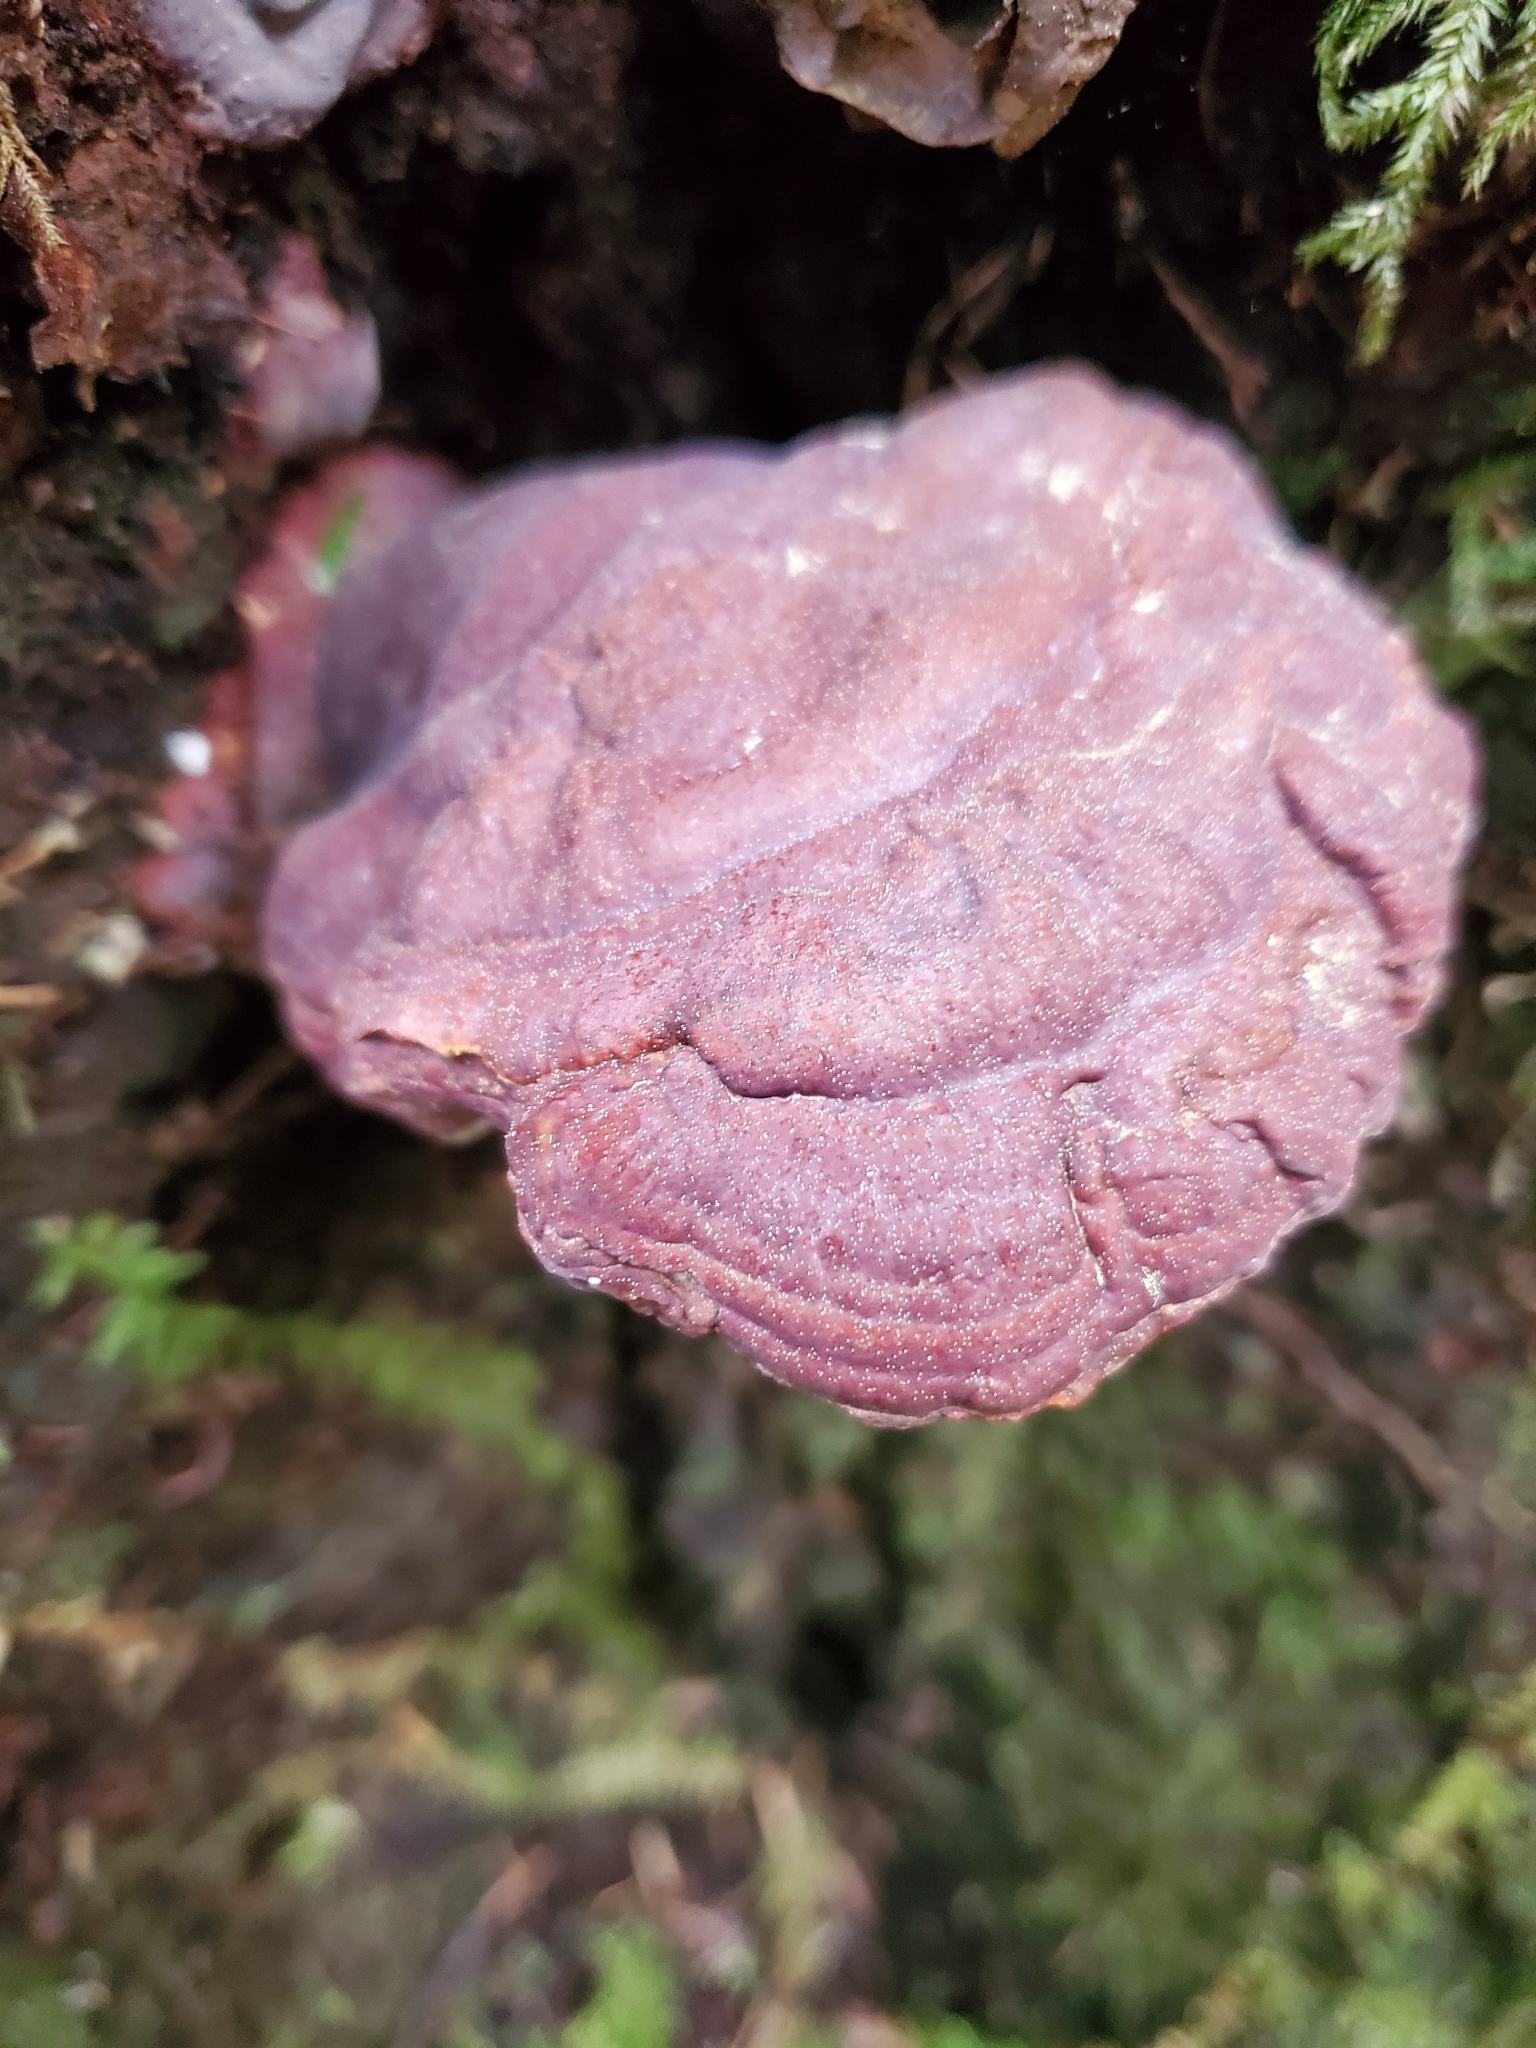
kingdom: Fungi
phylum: Basidiomycota
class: Agaricomycetes
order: Polyporales
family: Polyporaceae
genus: Ganoderma
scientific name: Ganoderma oregonense
